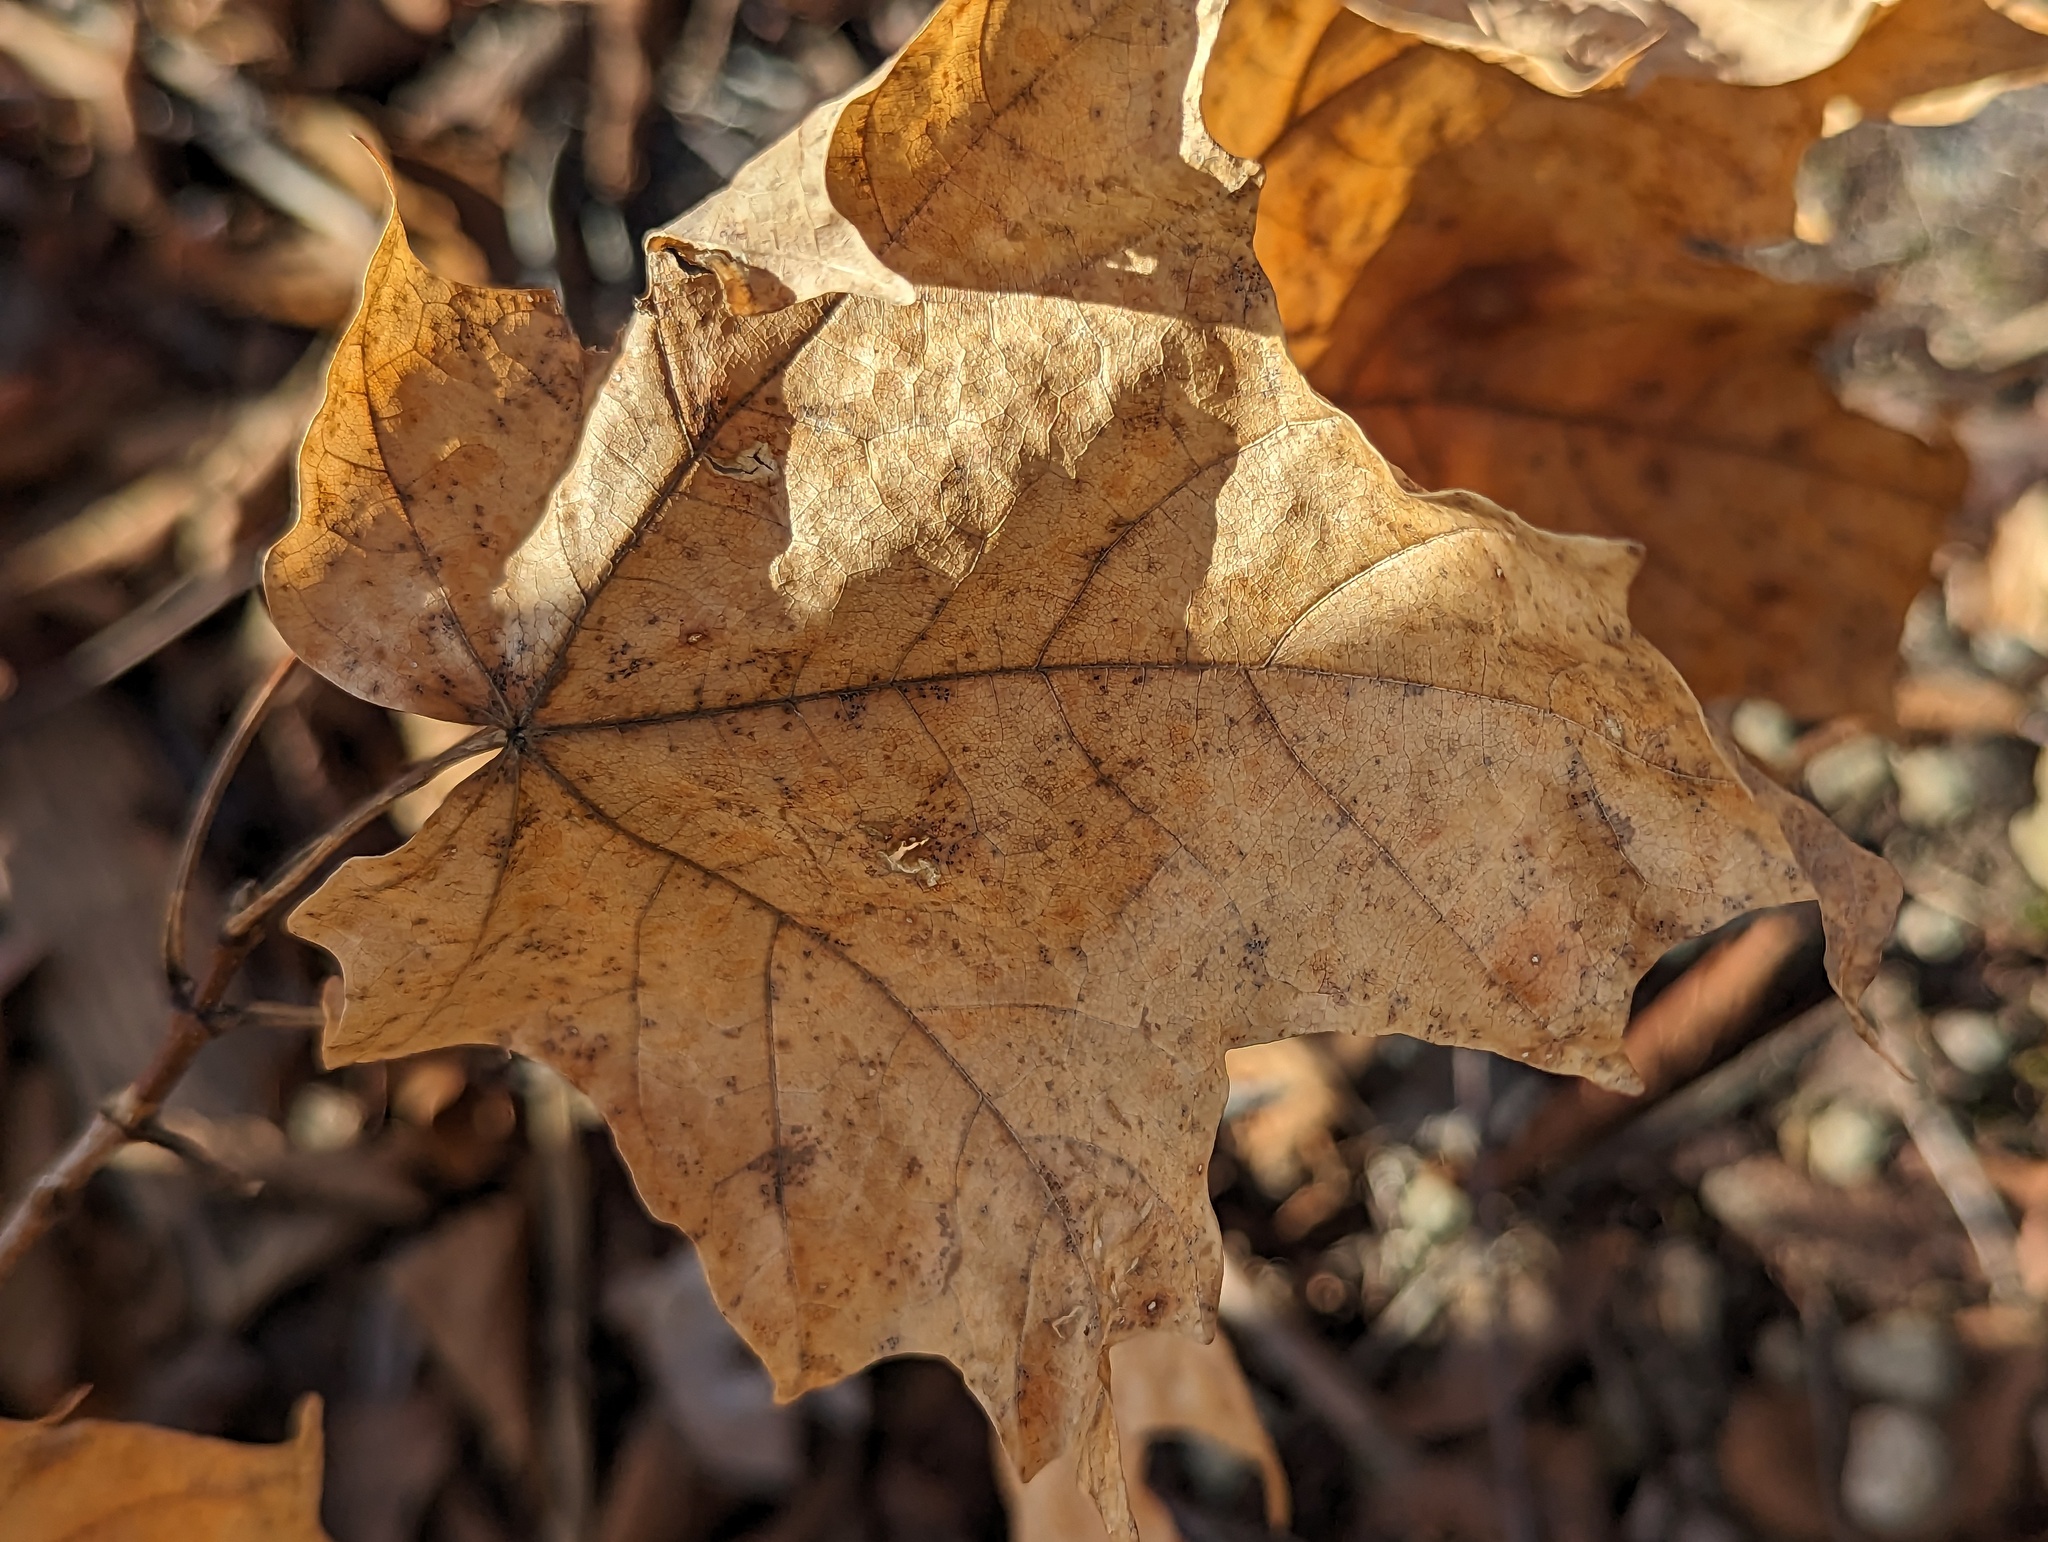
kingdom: Plantae
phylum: Tracheophyta
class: Magnoliopsida
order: Sapindales
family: Sapindaceae
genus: Acer
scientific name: Acer saccharum
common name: Sugar maple
